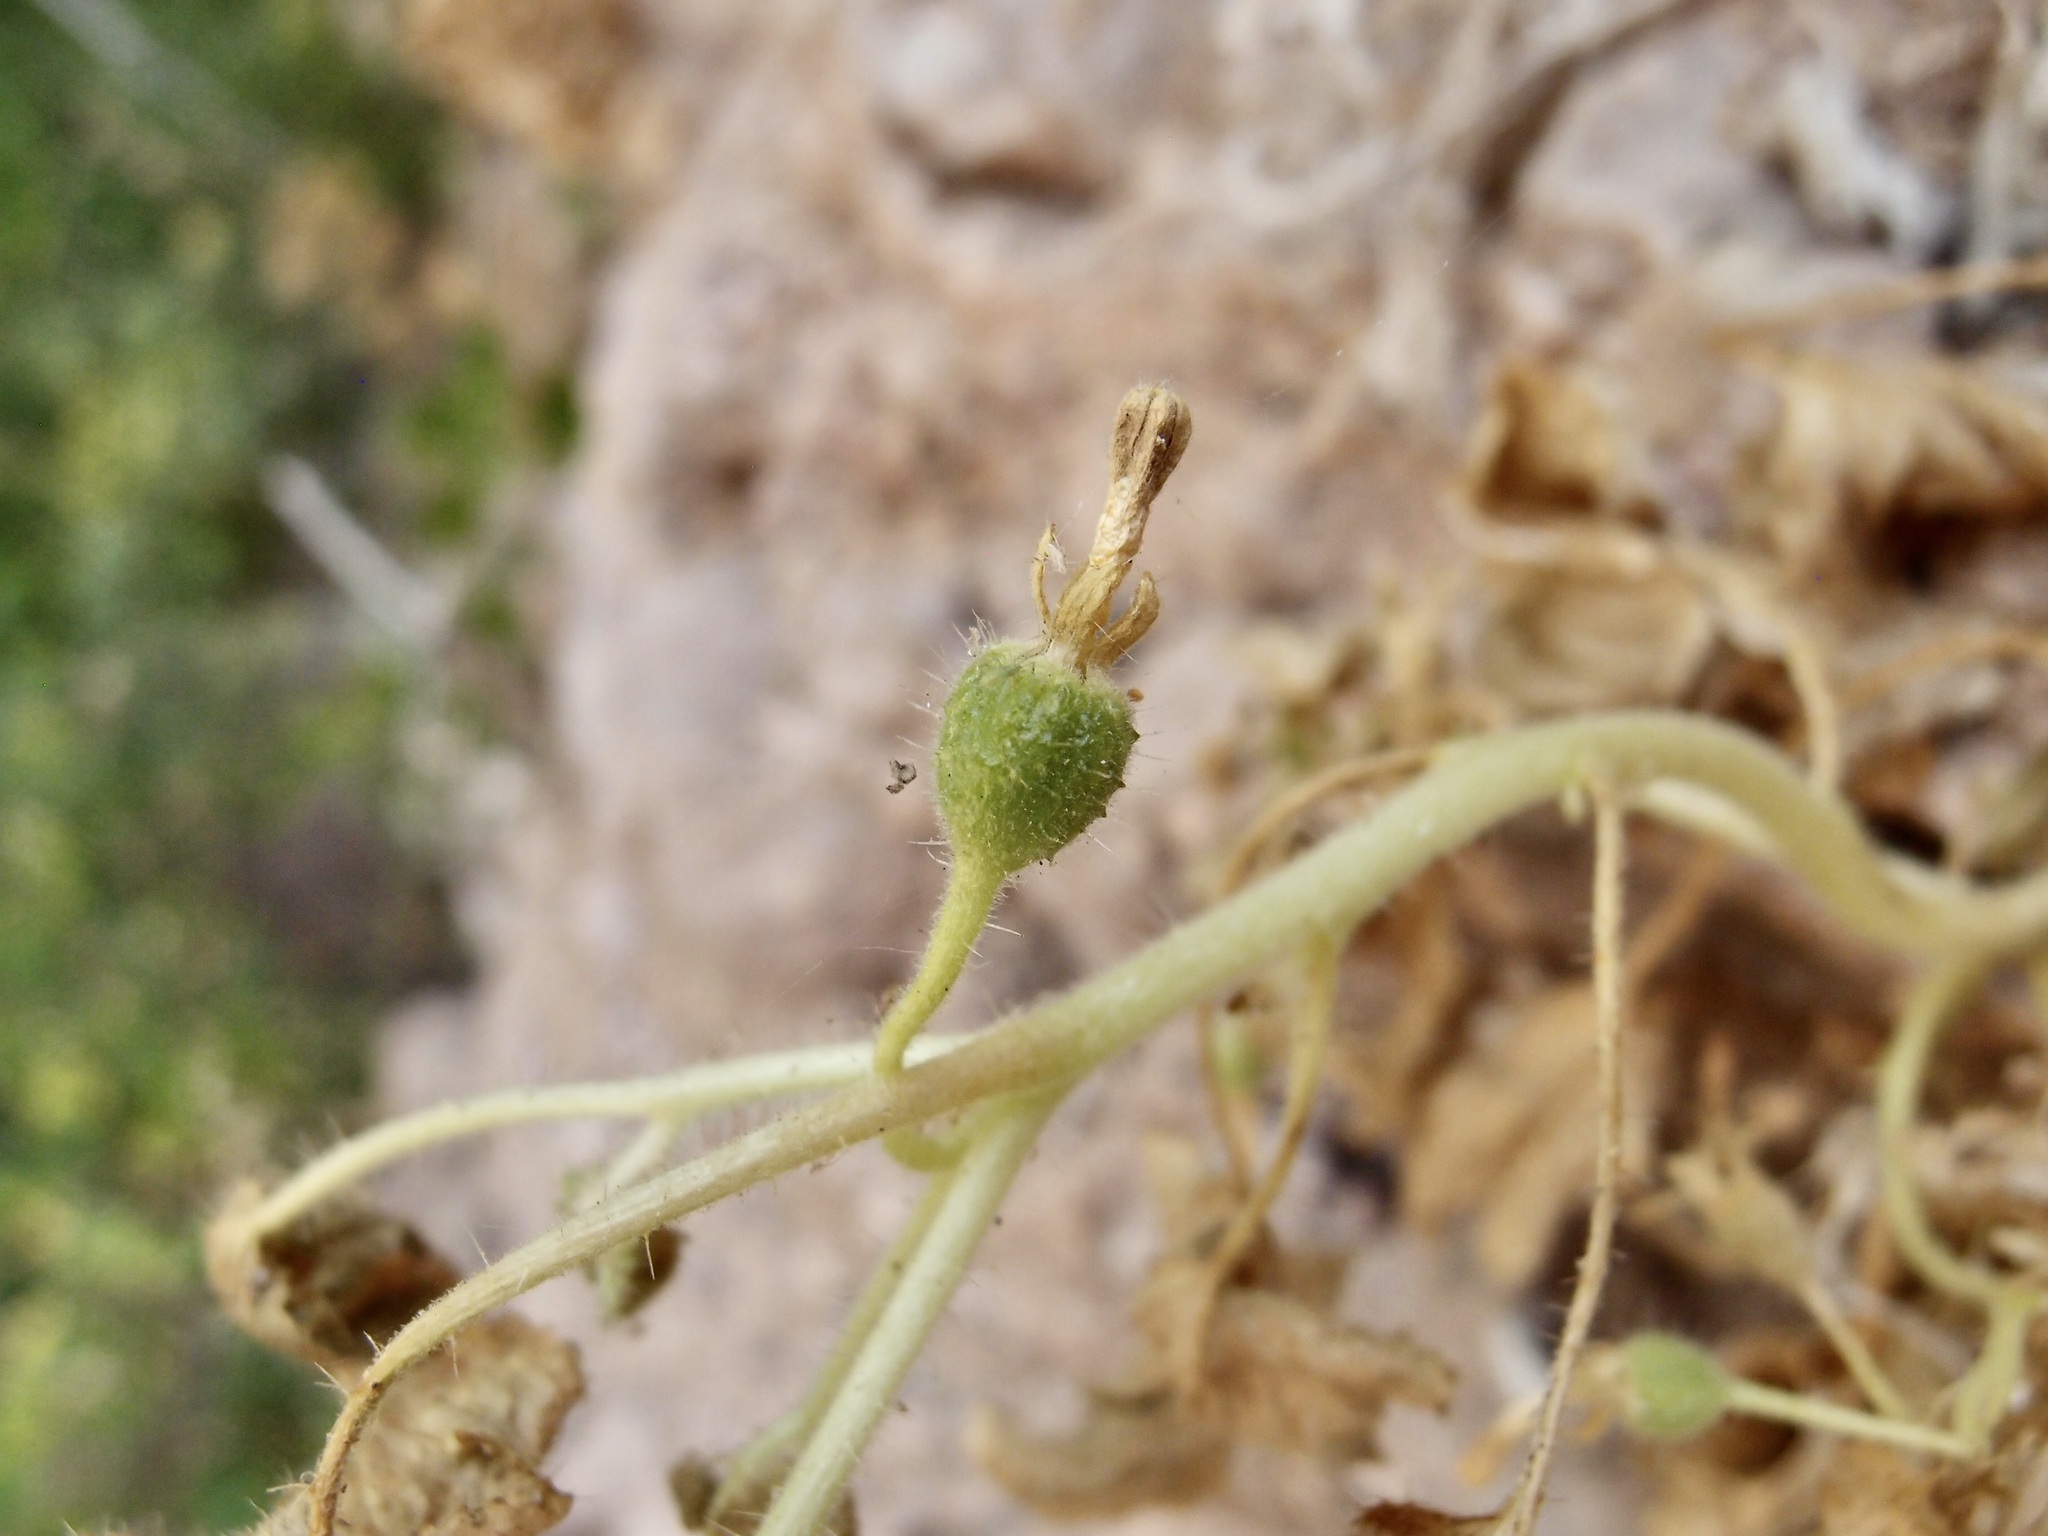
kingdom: Plantae
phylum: Tracheophyta
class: Magnoliopsida
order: Cornales
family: Loasaceae
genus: Eucnide
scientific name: Eucnide rupestris
